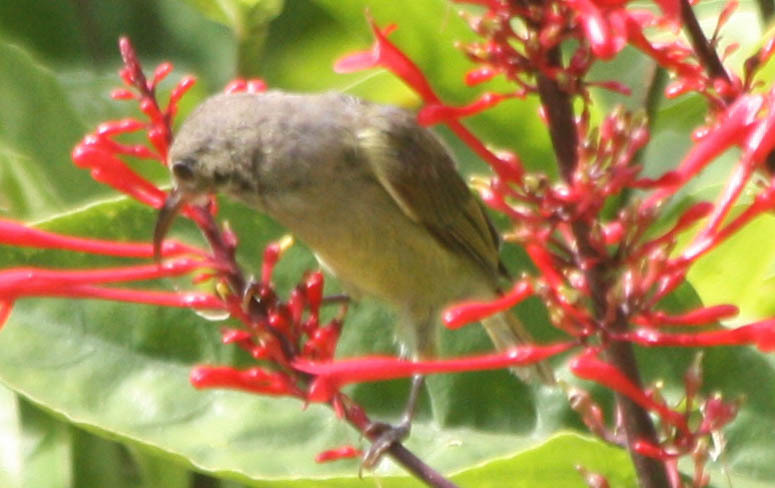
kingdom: Animalia
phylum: Chordata
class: Aves
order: Passeriformes
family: Nectariniidae
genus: Aethopyga
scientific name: Aethopyga siparaja
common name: Crimson sunbird
